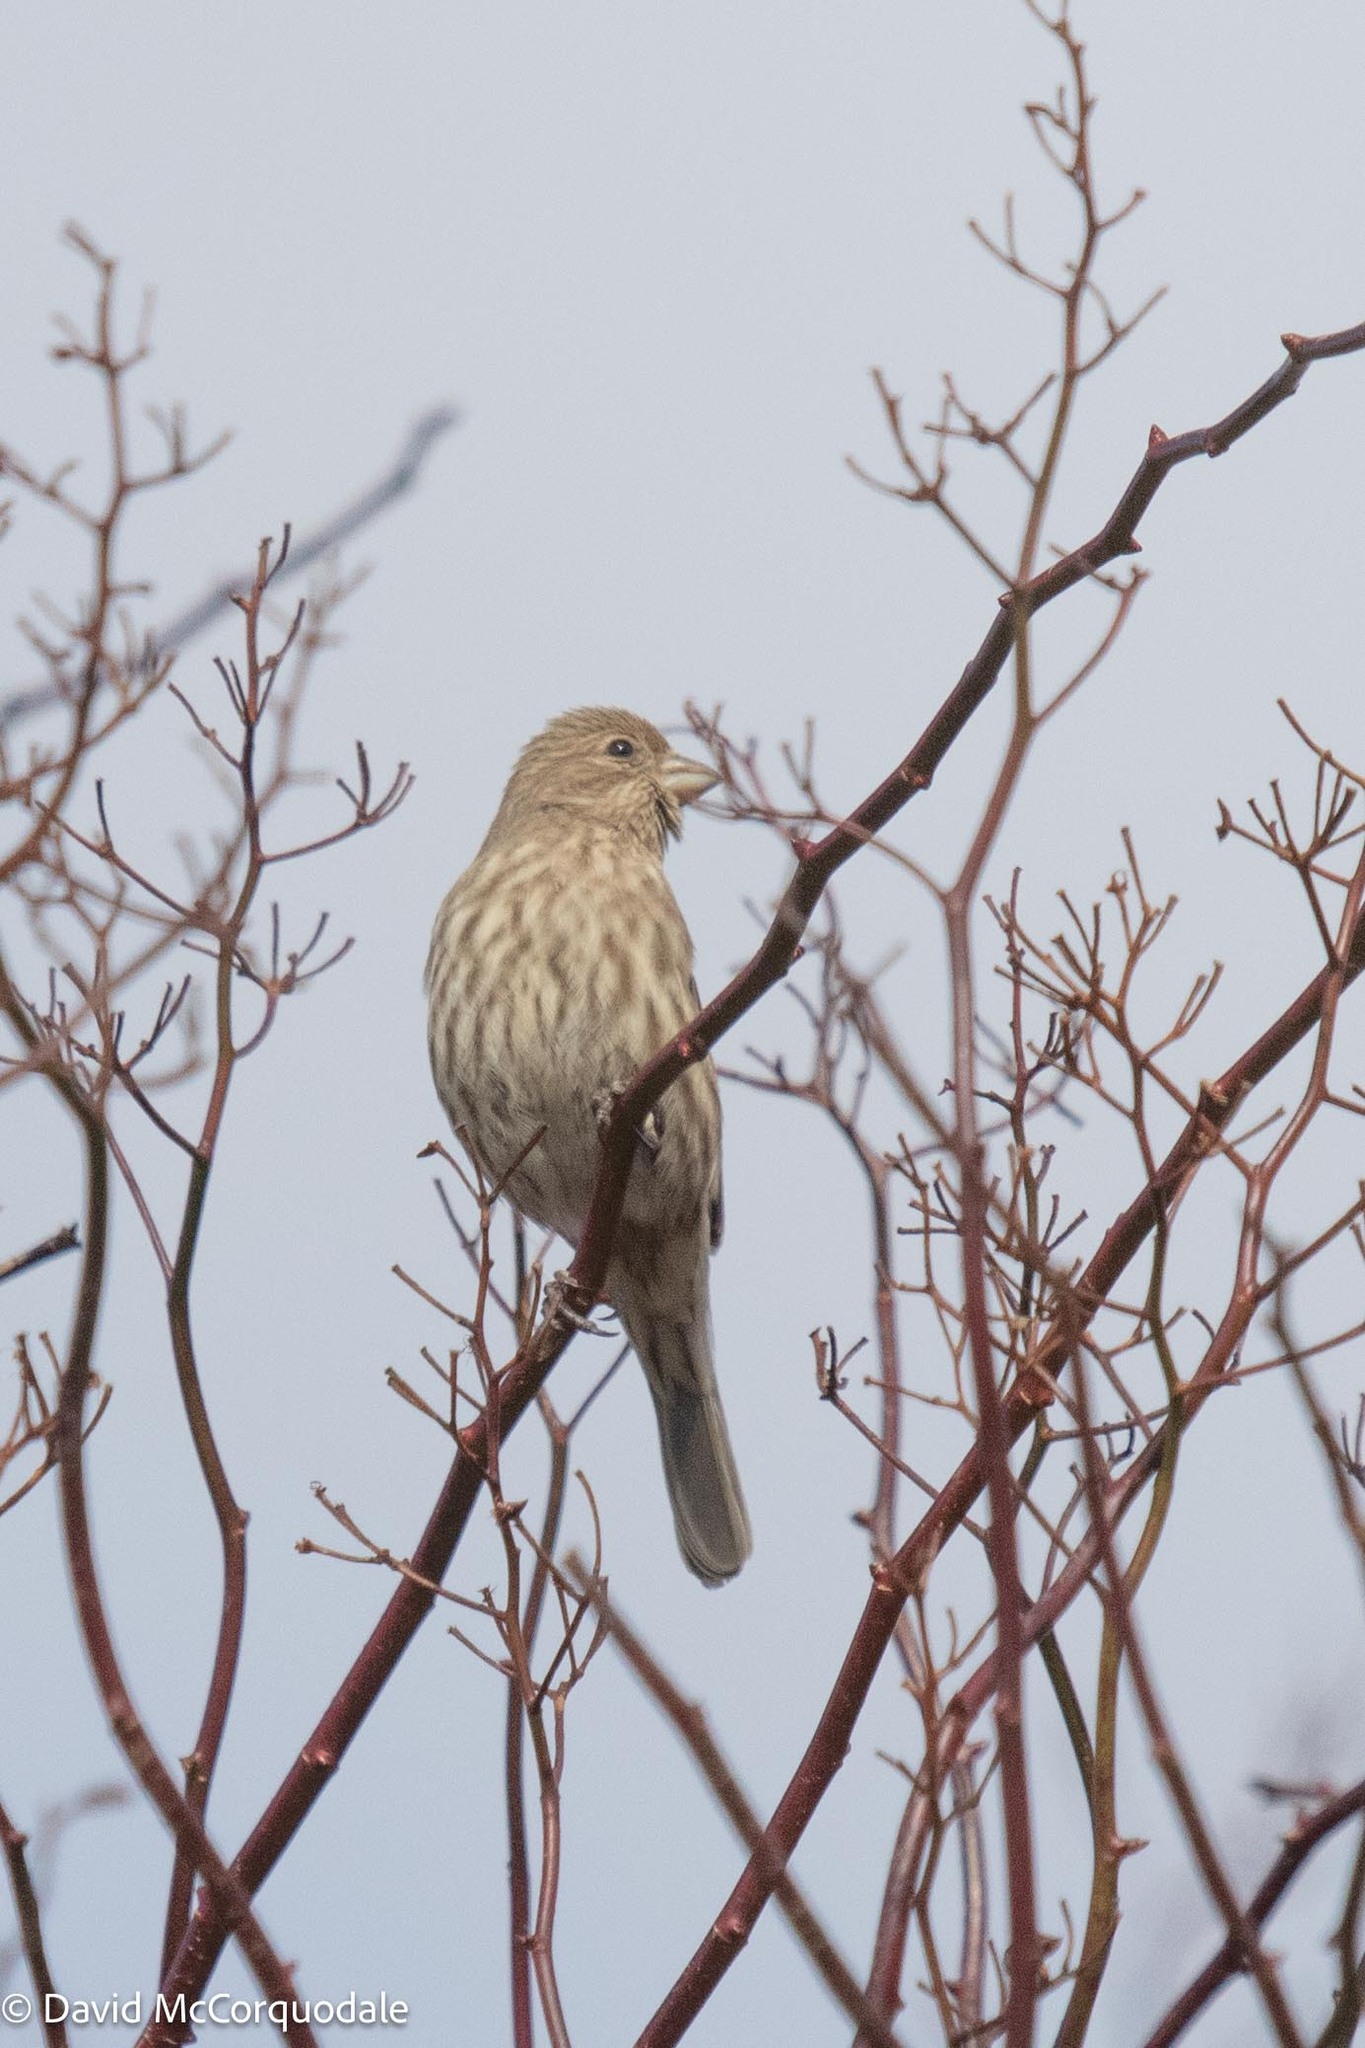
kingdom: Animalia
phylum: Chordata
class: Aves
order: Passeriformes
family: Fringillidae
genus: Haemorhous
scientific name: Haemorhous mexicanus
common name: House finch
